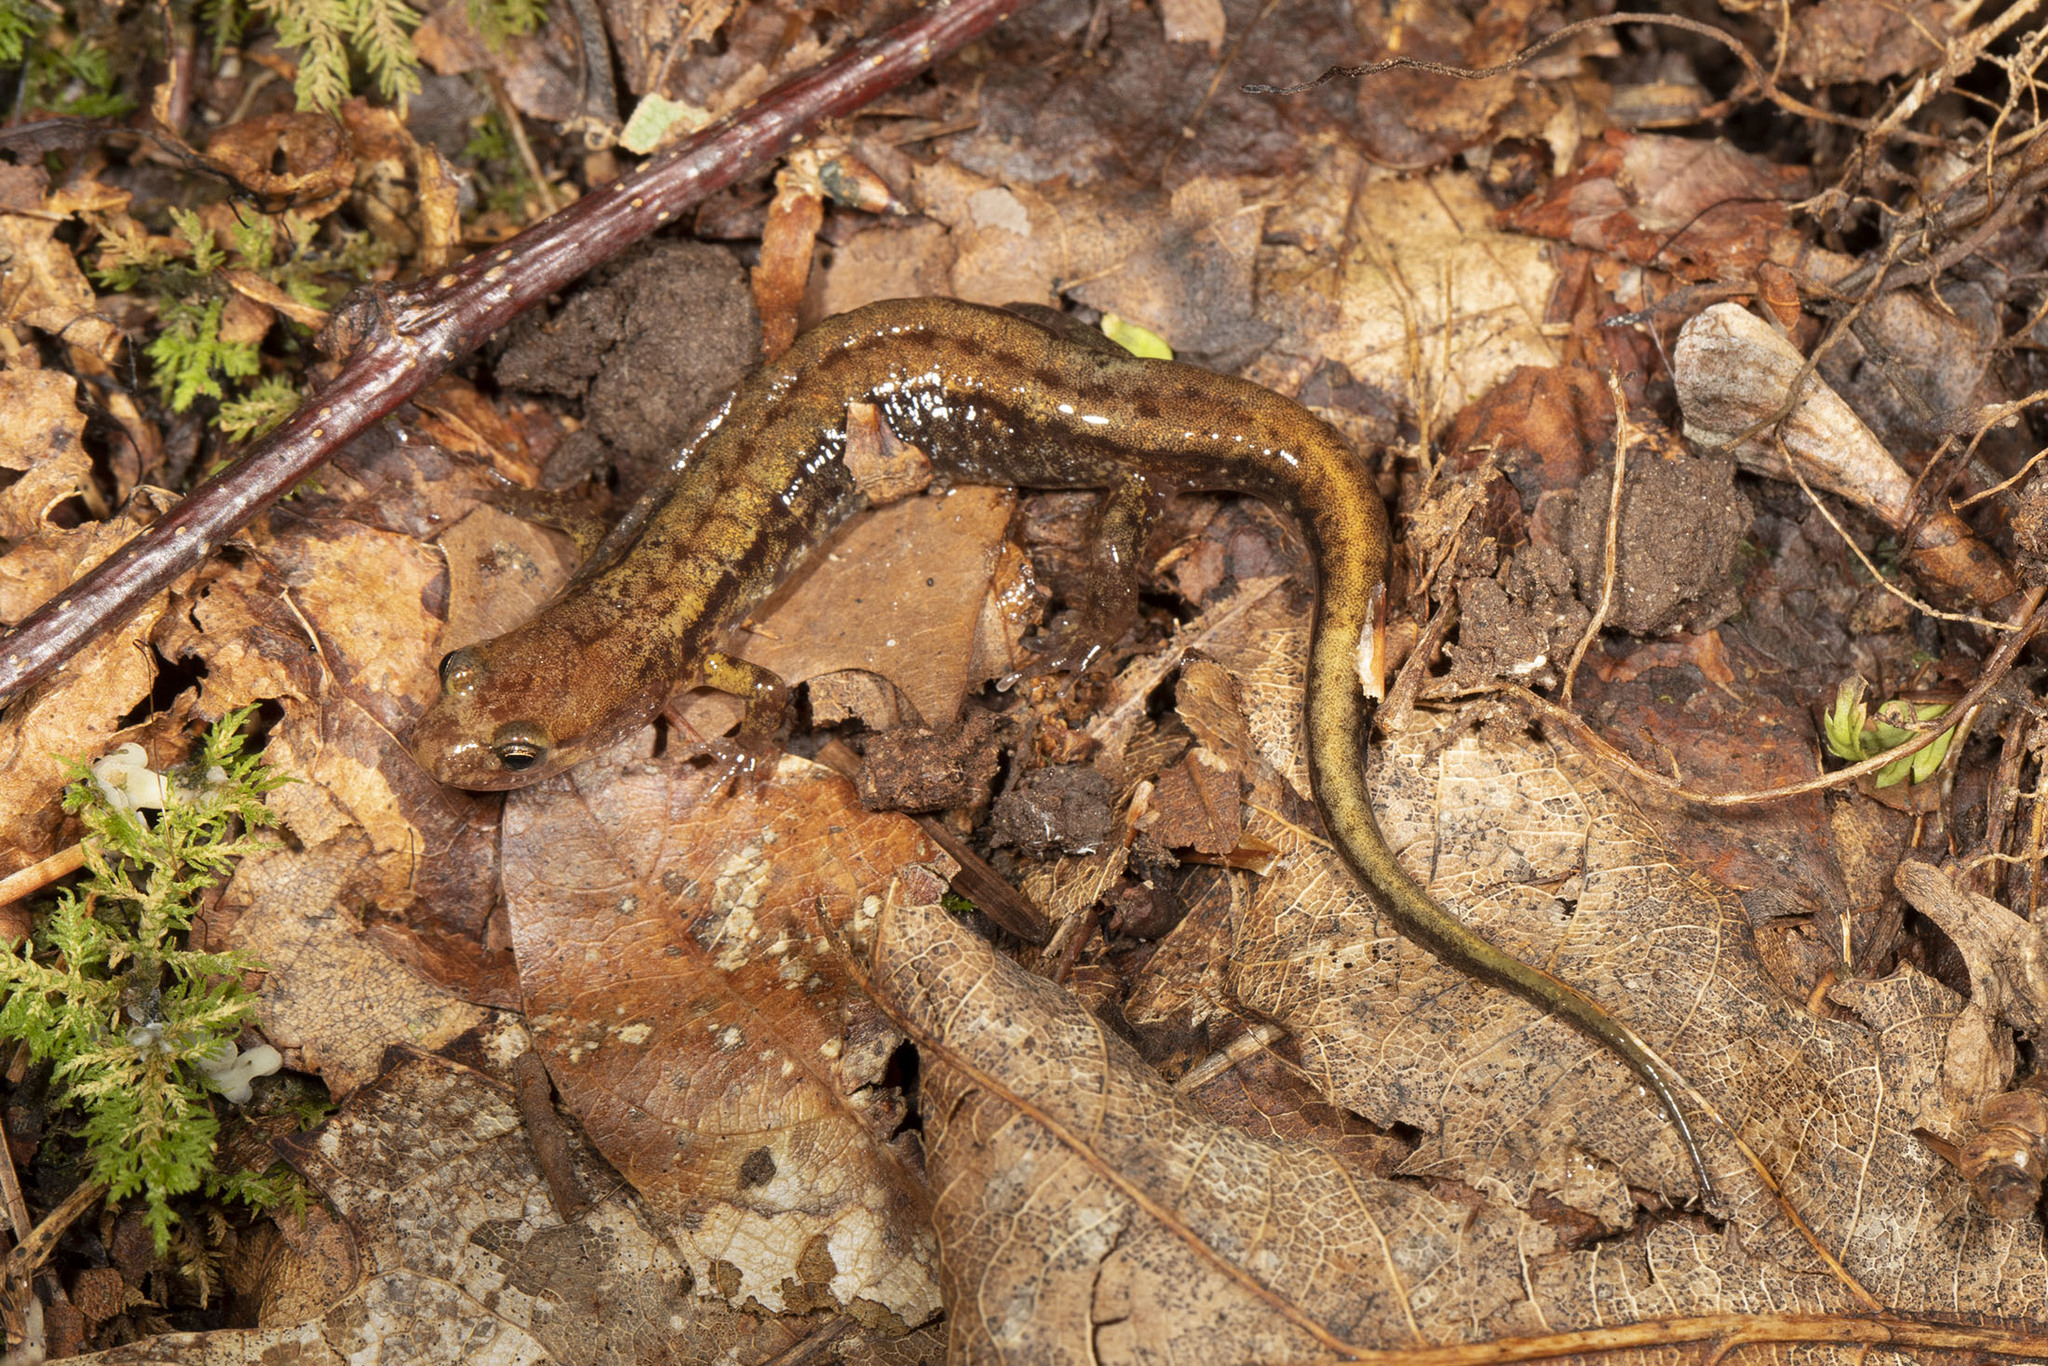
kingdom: Animalia
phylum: Chordata
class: Amphibia
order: Caudata
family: Plethodontidae
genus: Desmognathus
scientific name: Desmognathus ochrophaeus
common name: Allegheny mountain dusky salamander
